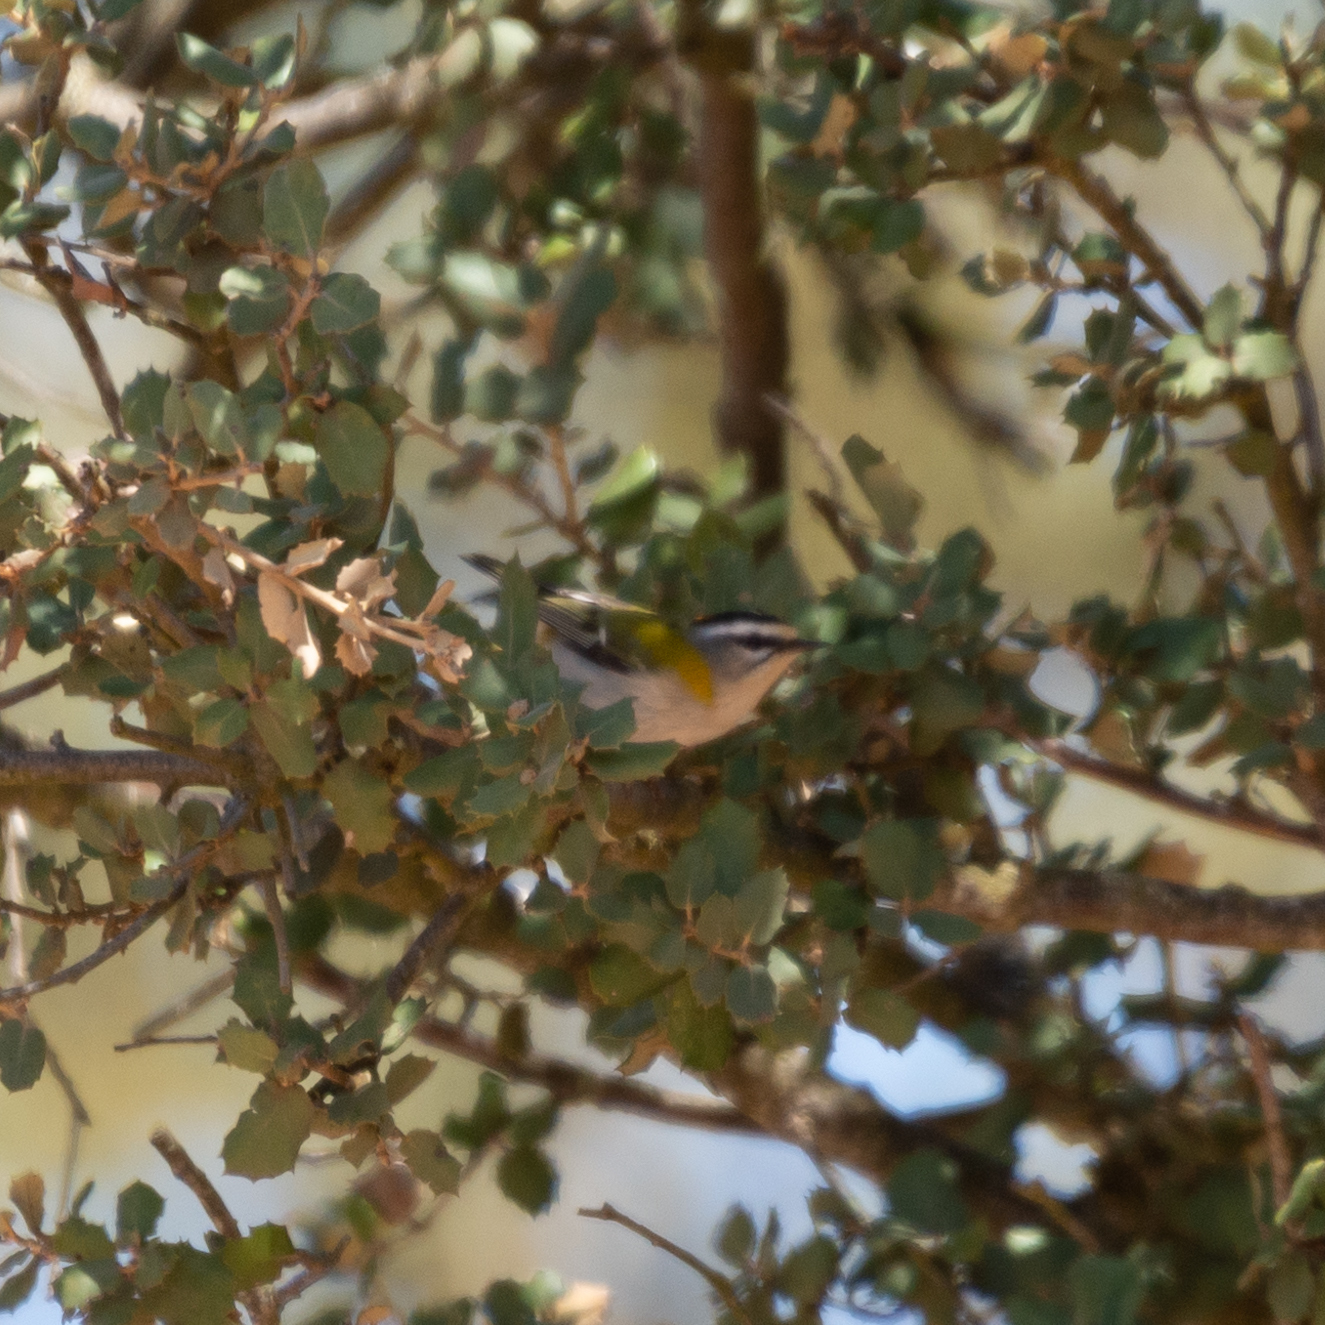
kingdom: Animalia
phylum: Chordata
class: Aves
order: Passeriformes
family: Regulidae
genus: Regulus
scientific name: Regulus ignicapilla
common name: Firecrest
